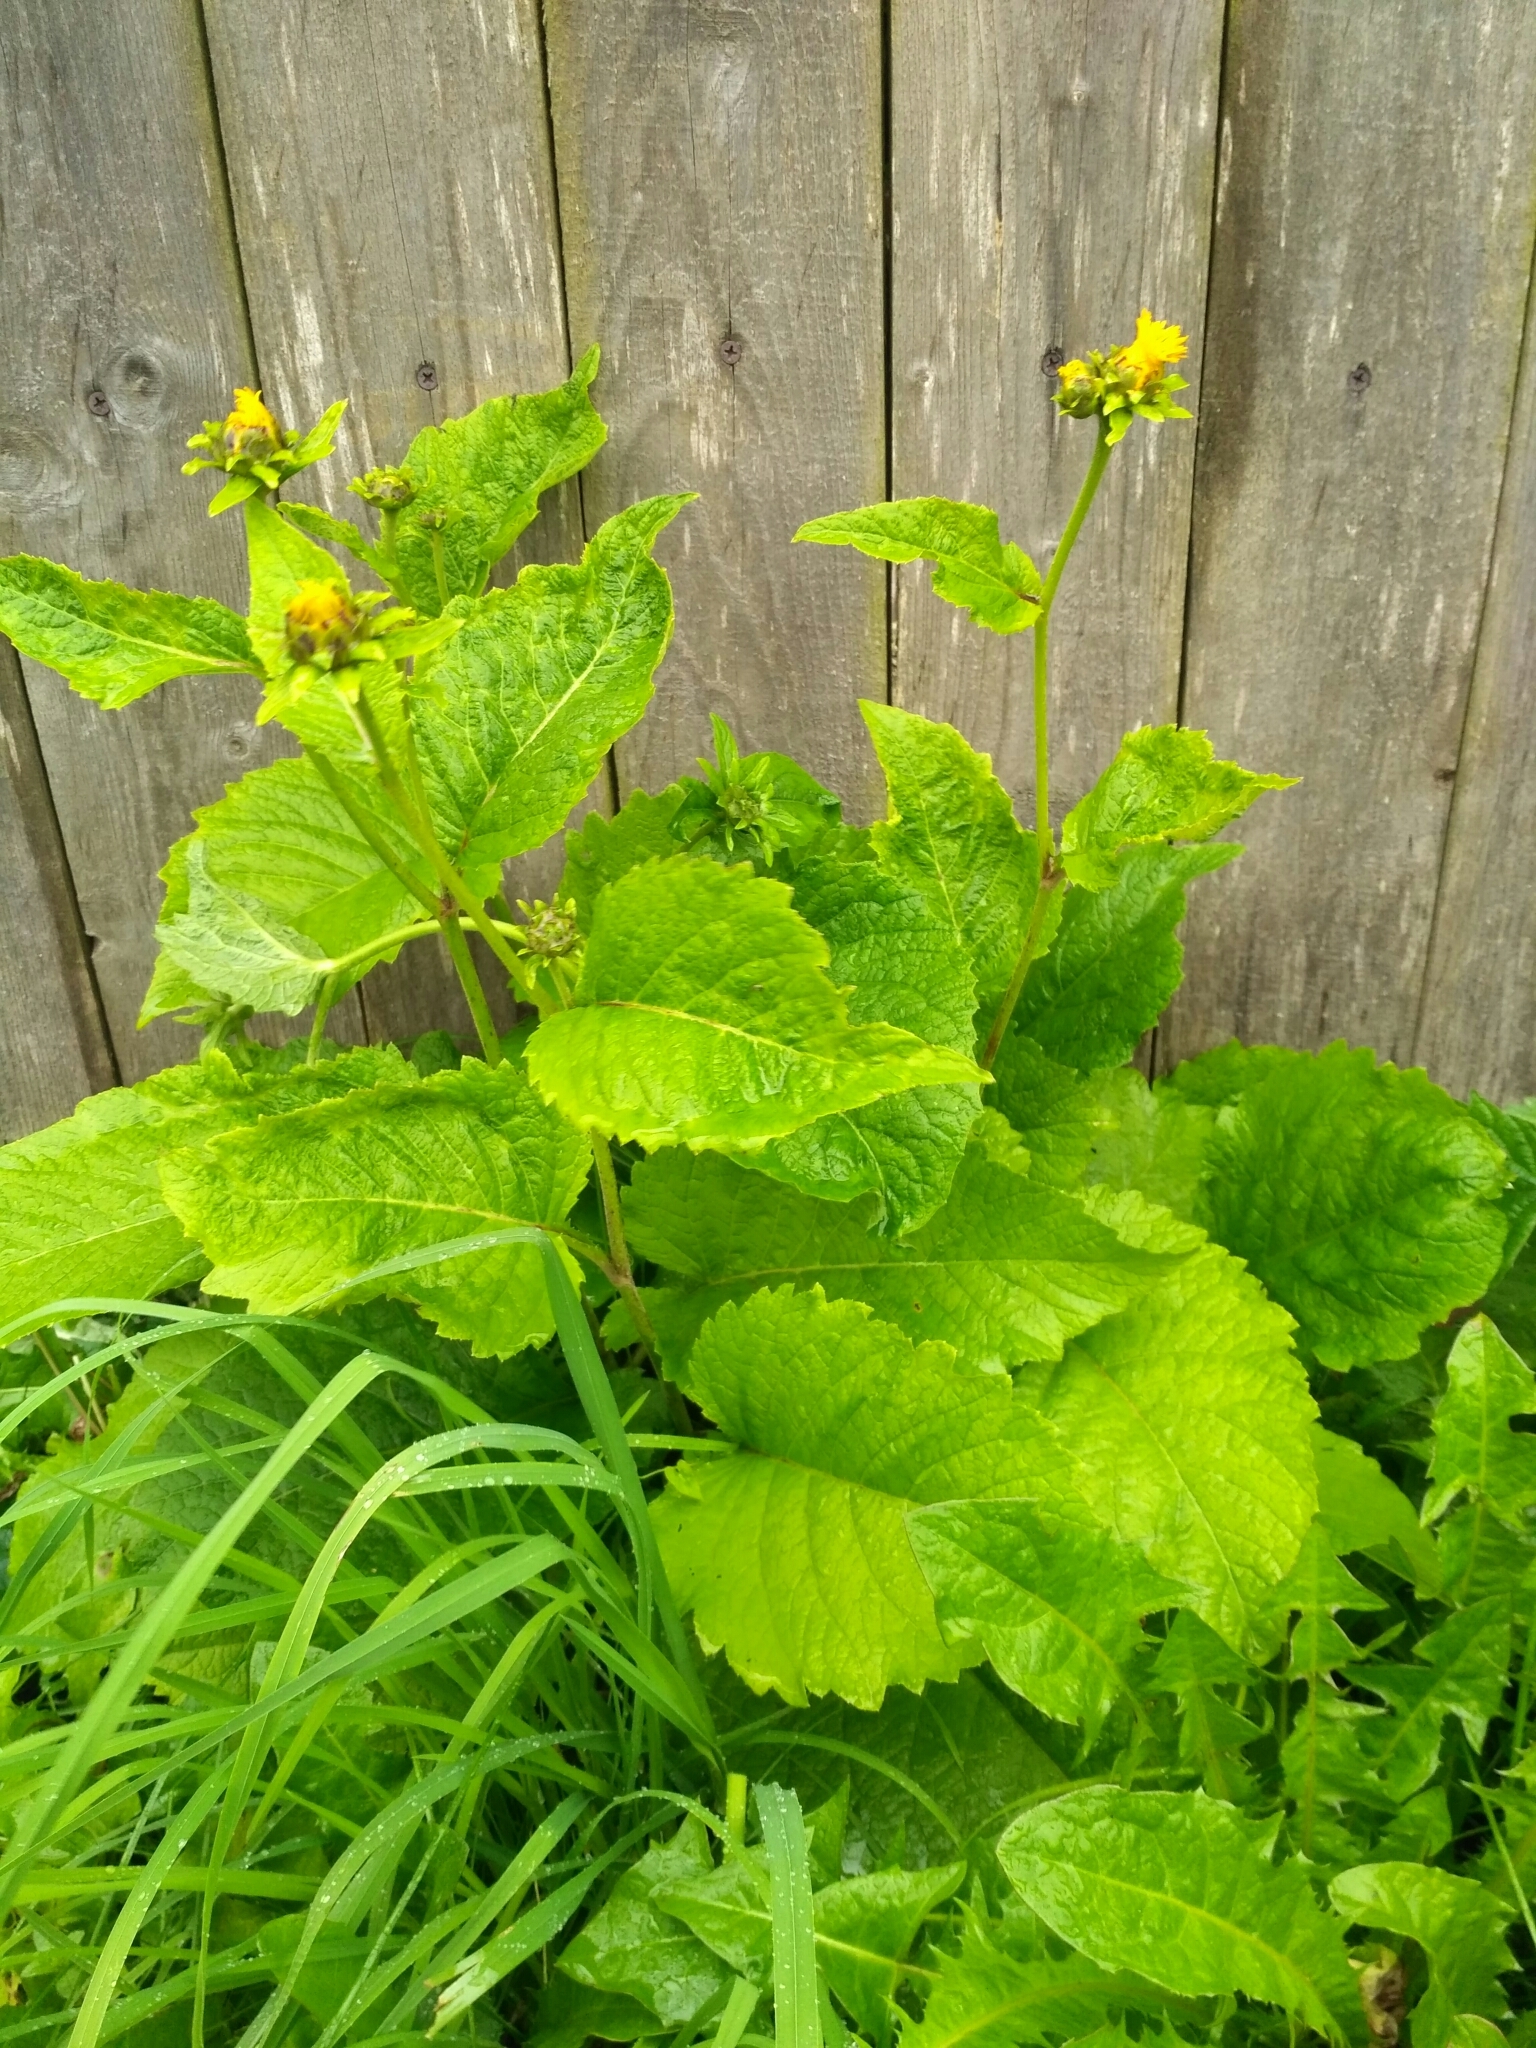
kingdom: Plantae
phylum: Tracheophyta
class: Magnoliopsida
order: Asterales
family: Asteraceae
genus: Telekia
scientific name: Telekia speciosa
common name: Yellow oxeye
